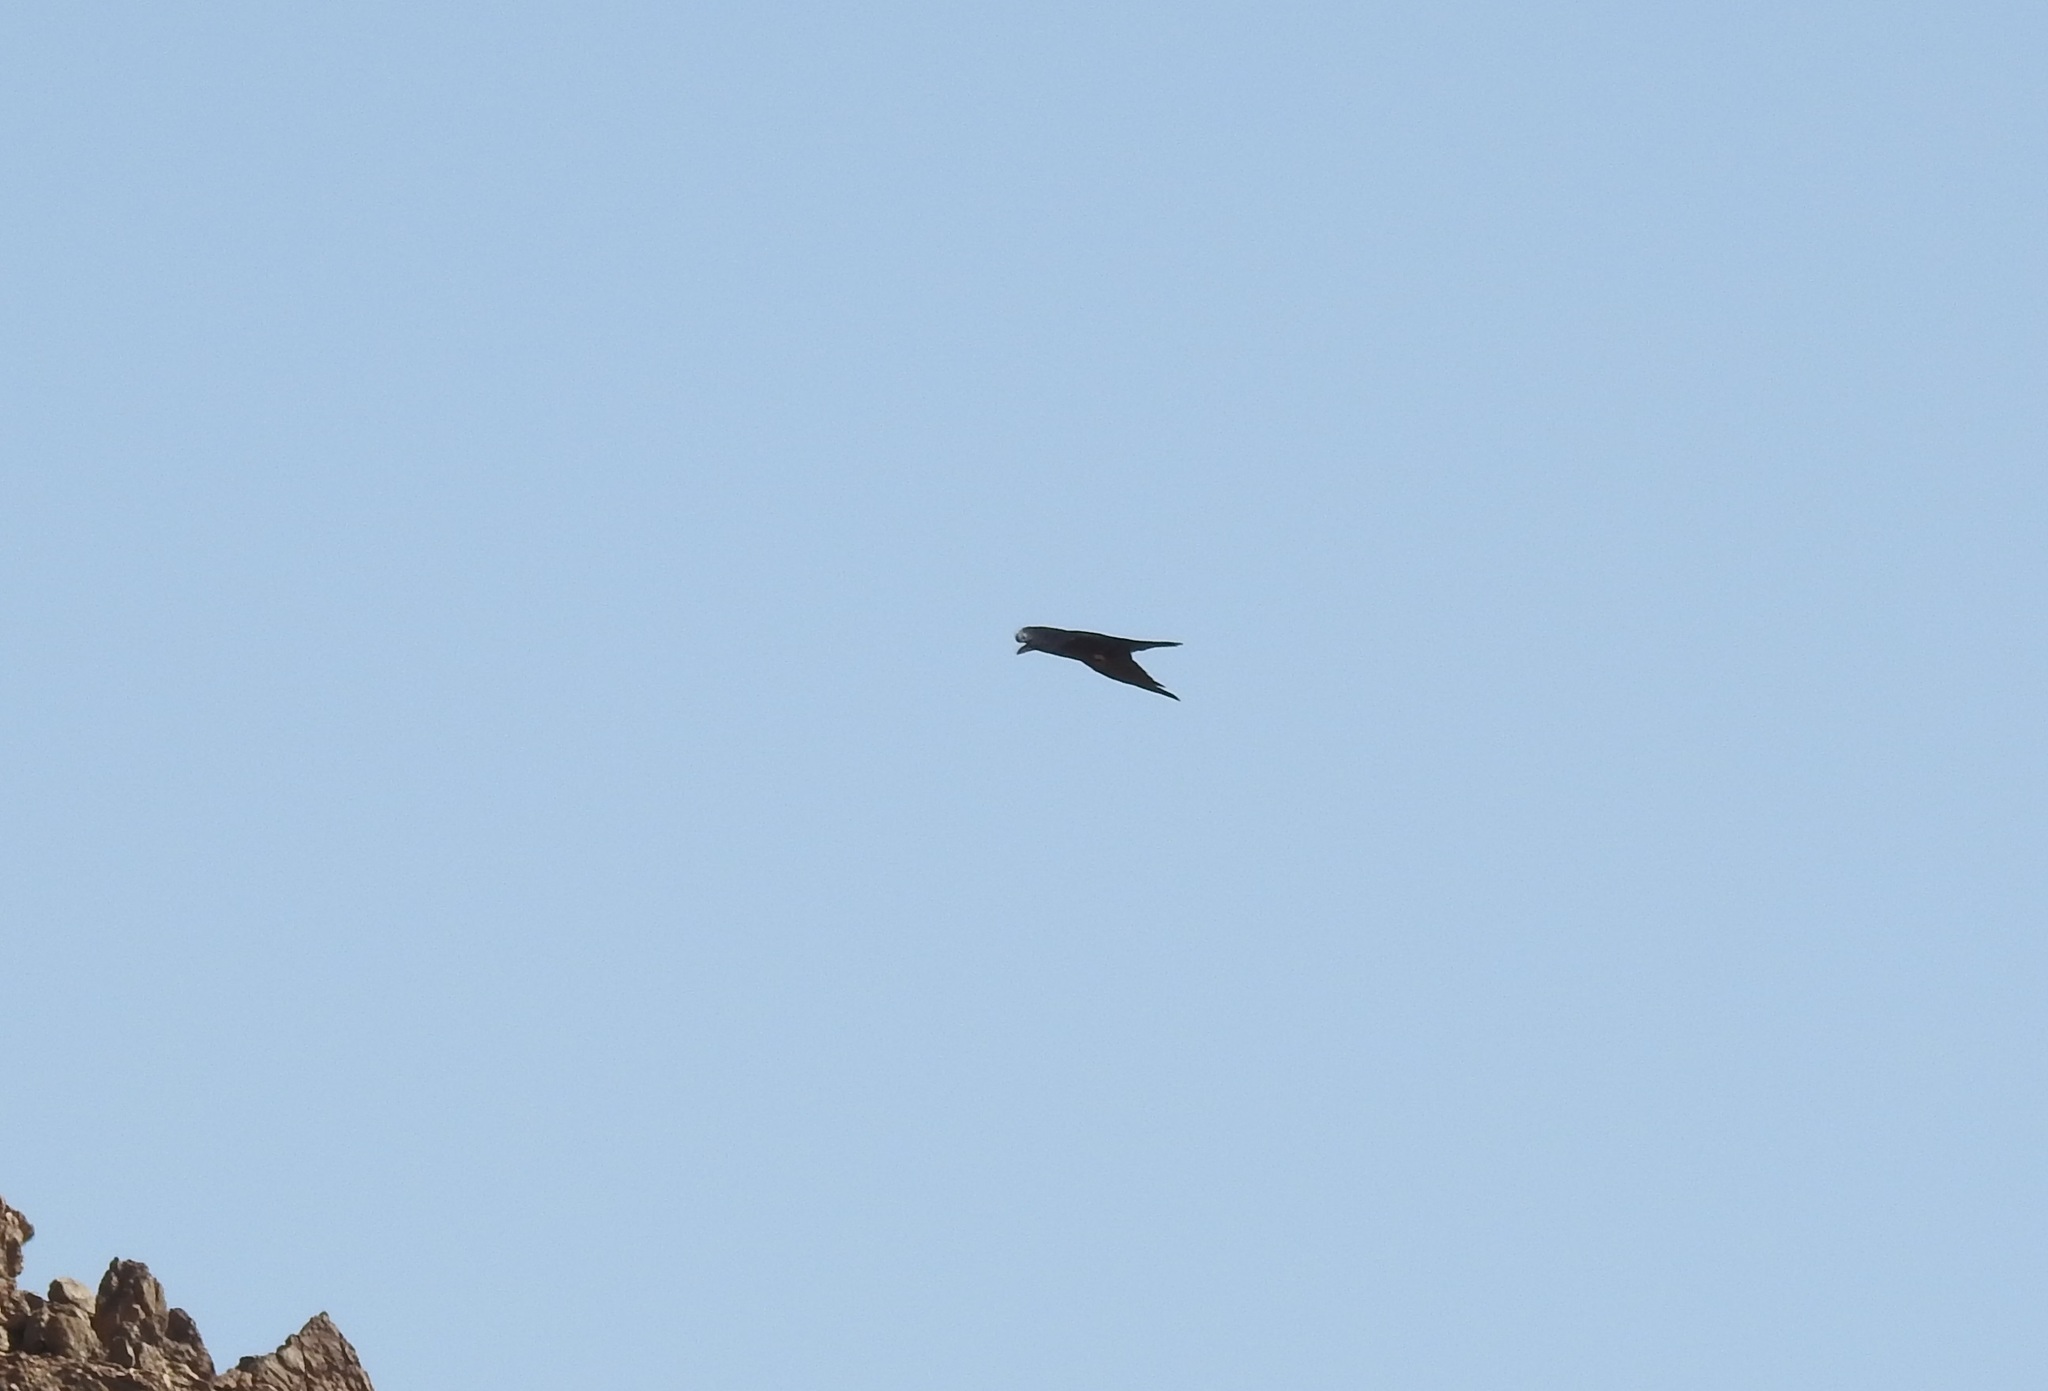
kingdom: Animalia
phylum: Chordata
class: Aves
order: Passeriformes
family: Corvidae
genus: Corvus
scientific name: Corvus ruficollis
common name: Brown-necked raven
